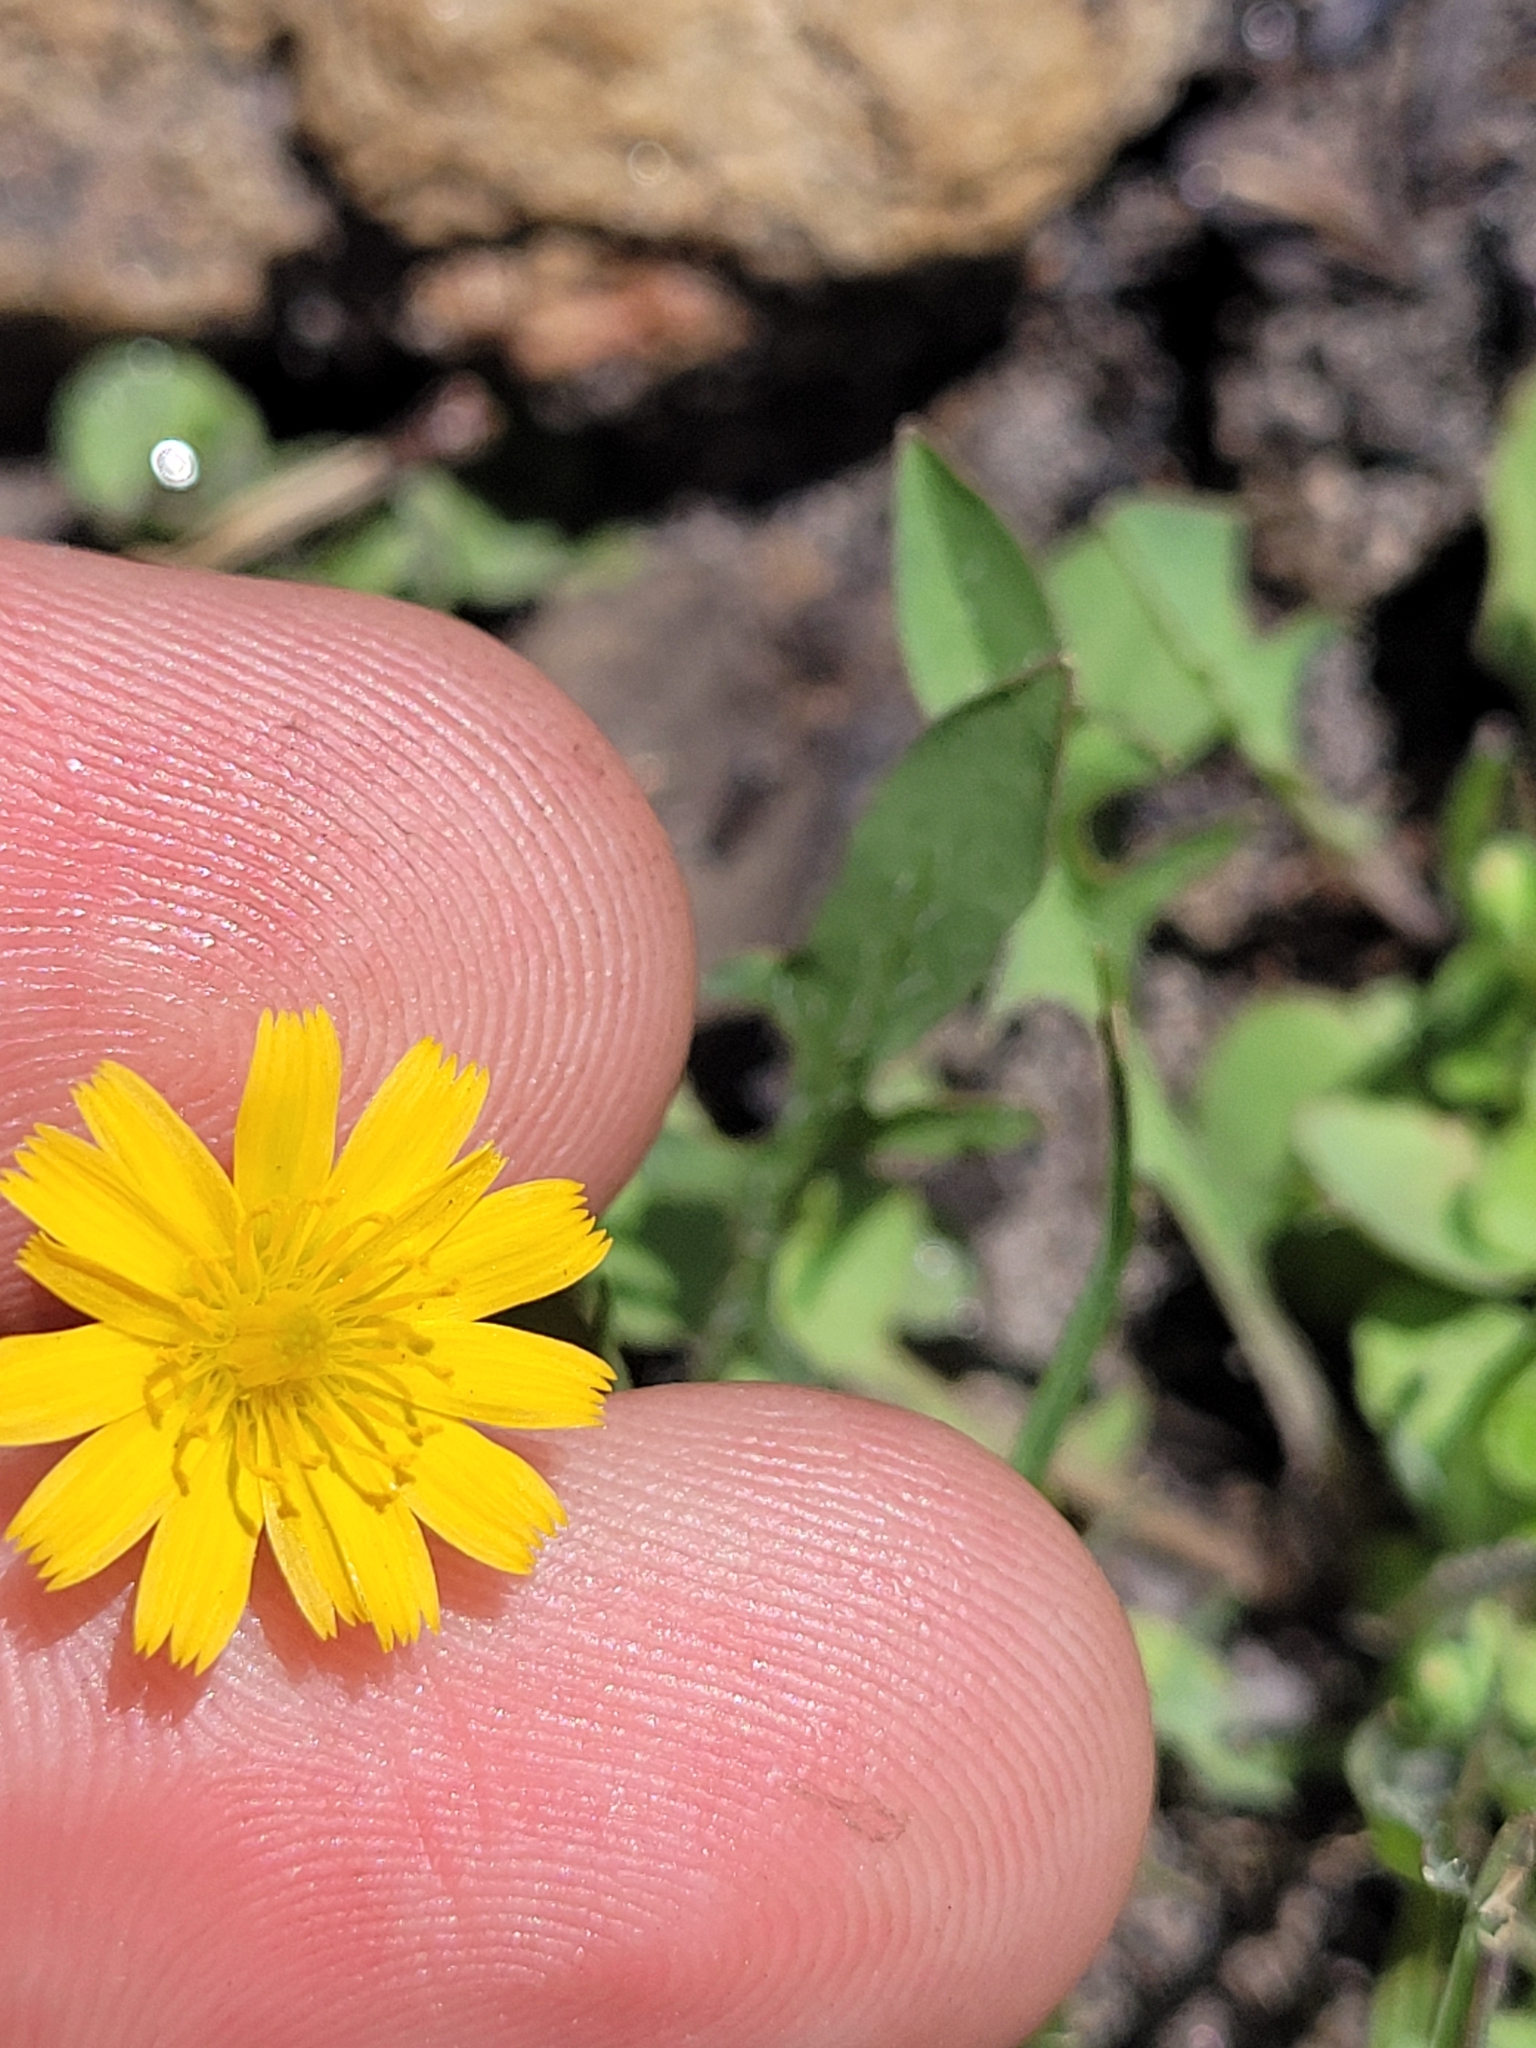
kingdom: Plantae
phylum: Tracheophyta
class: Magnoliopsida
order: Asterales
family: Asteraceae
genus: Krigia
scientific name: Krigia virginica
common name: Virginia dwarf-dandelion
